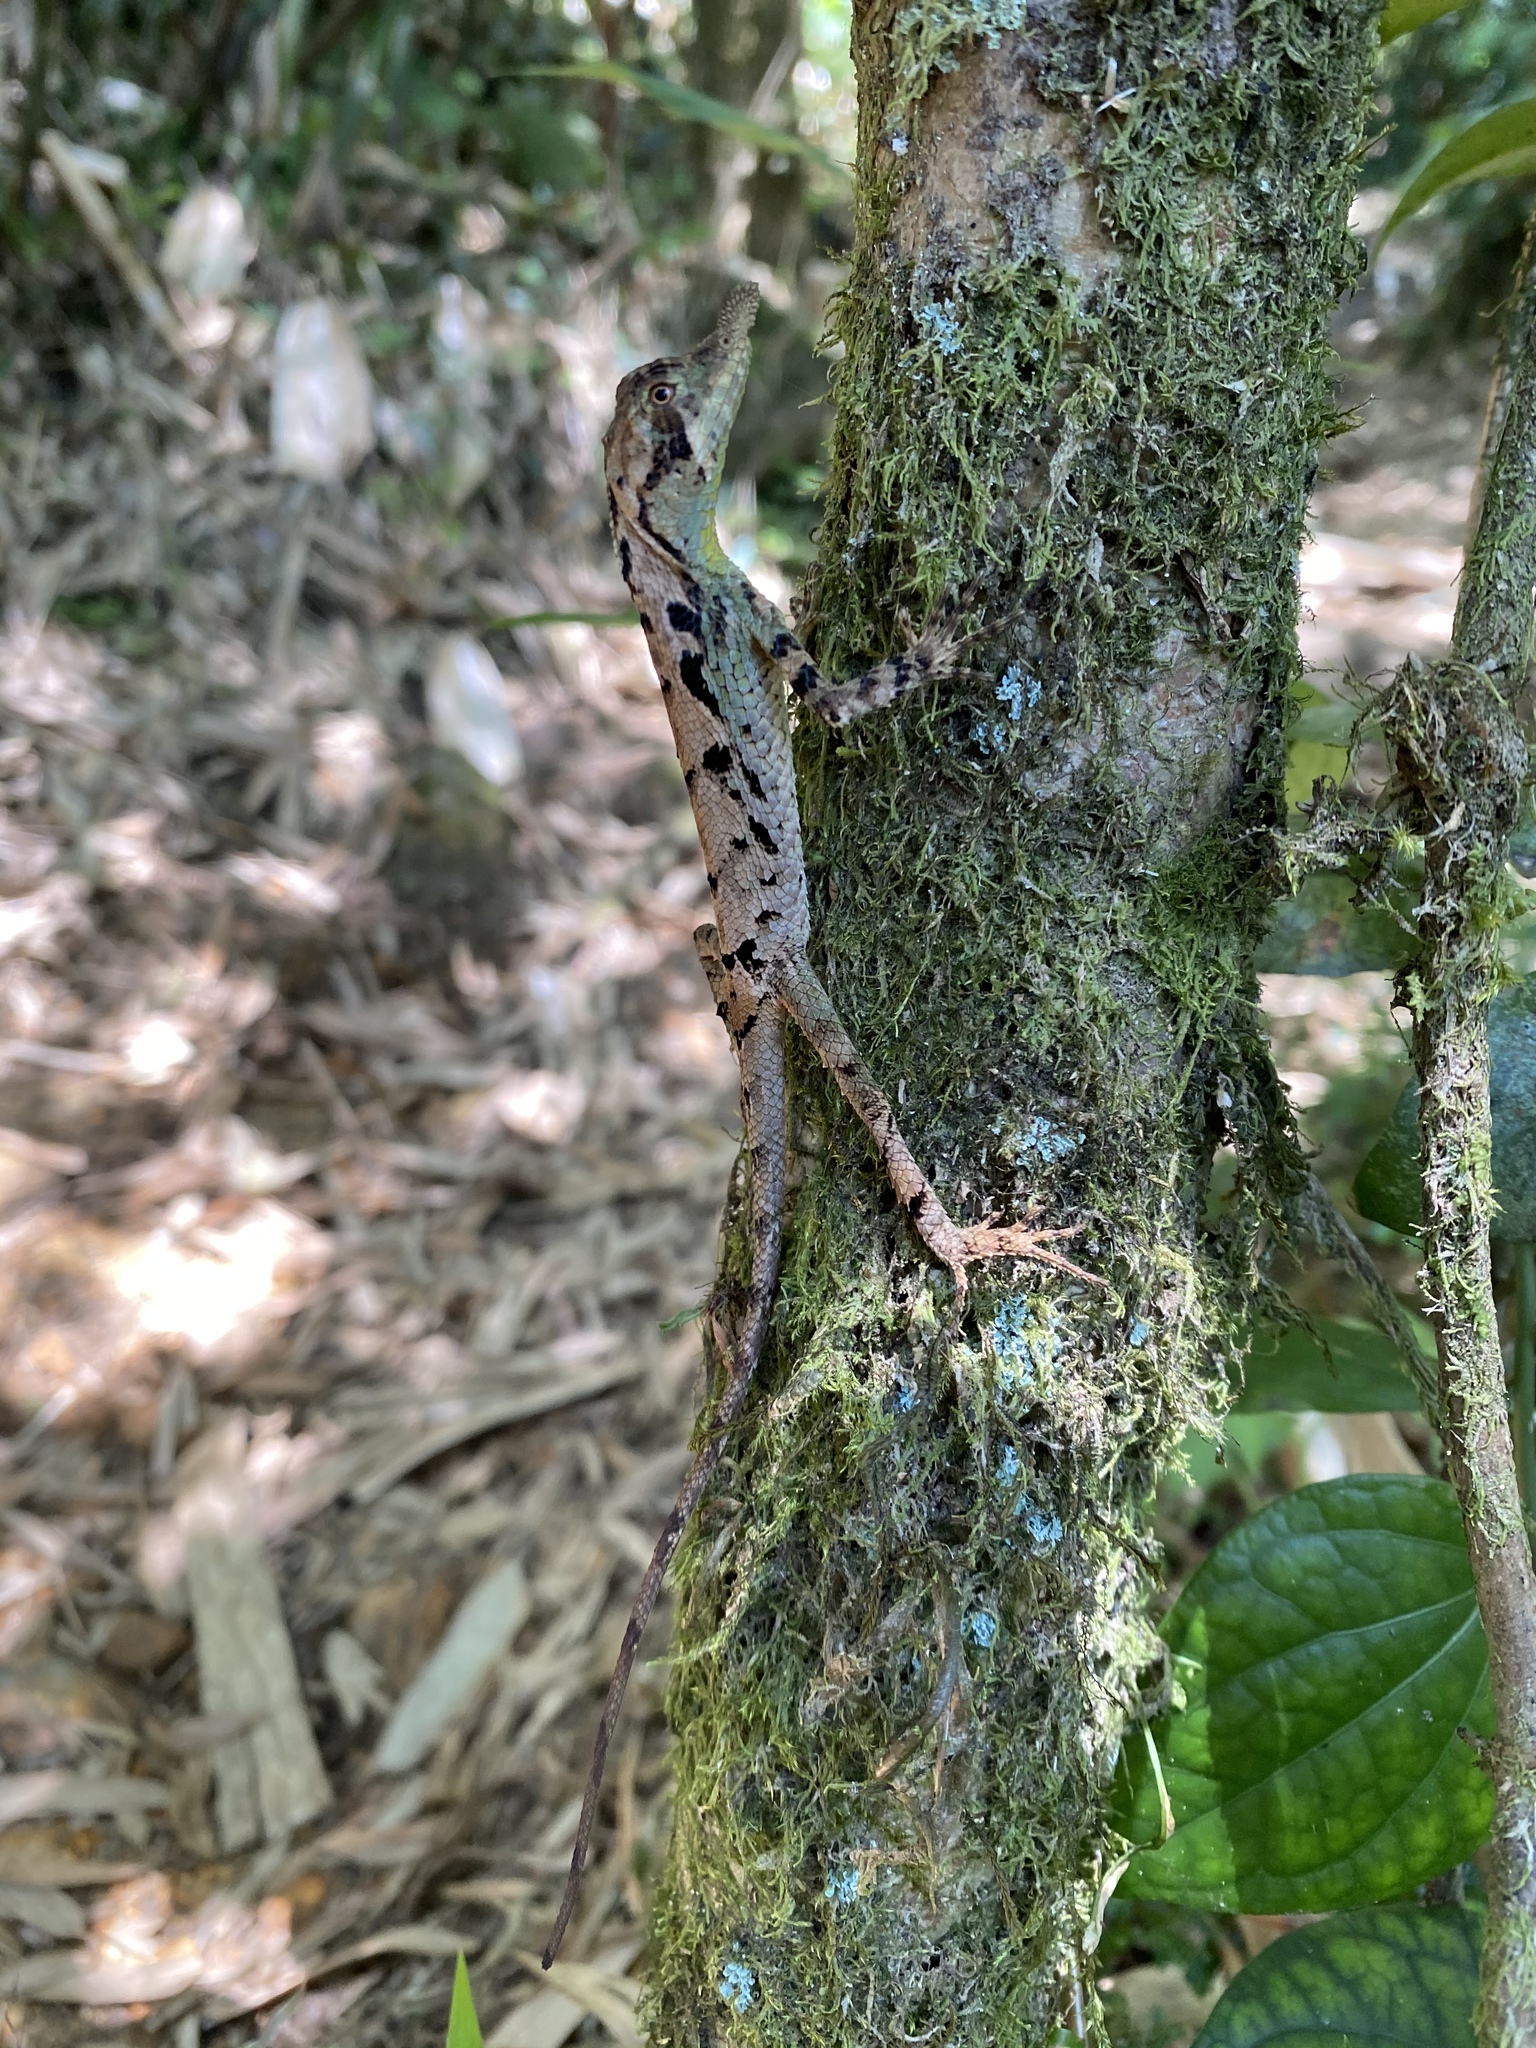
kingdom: Animalia
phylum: Chordata
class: Squamata
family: Agamidae
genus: Ceratophora
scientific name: Ceratophora tennentii
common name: Rhinoceros agama
